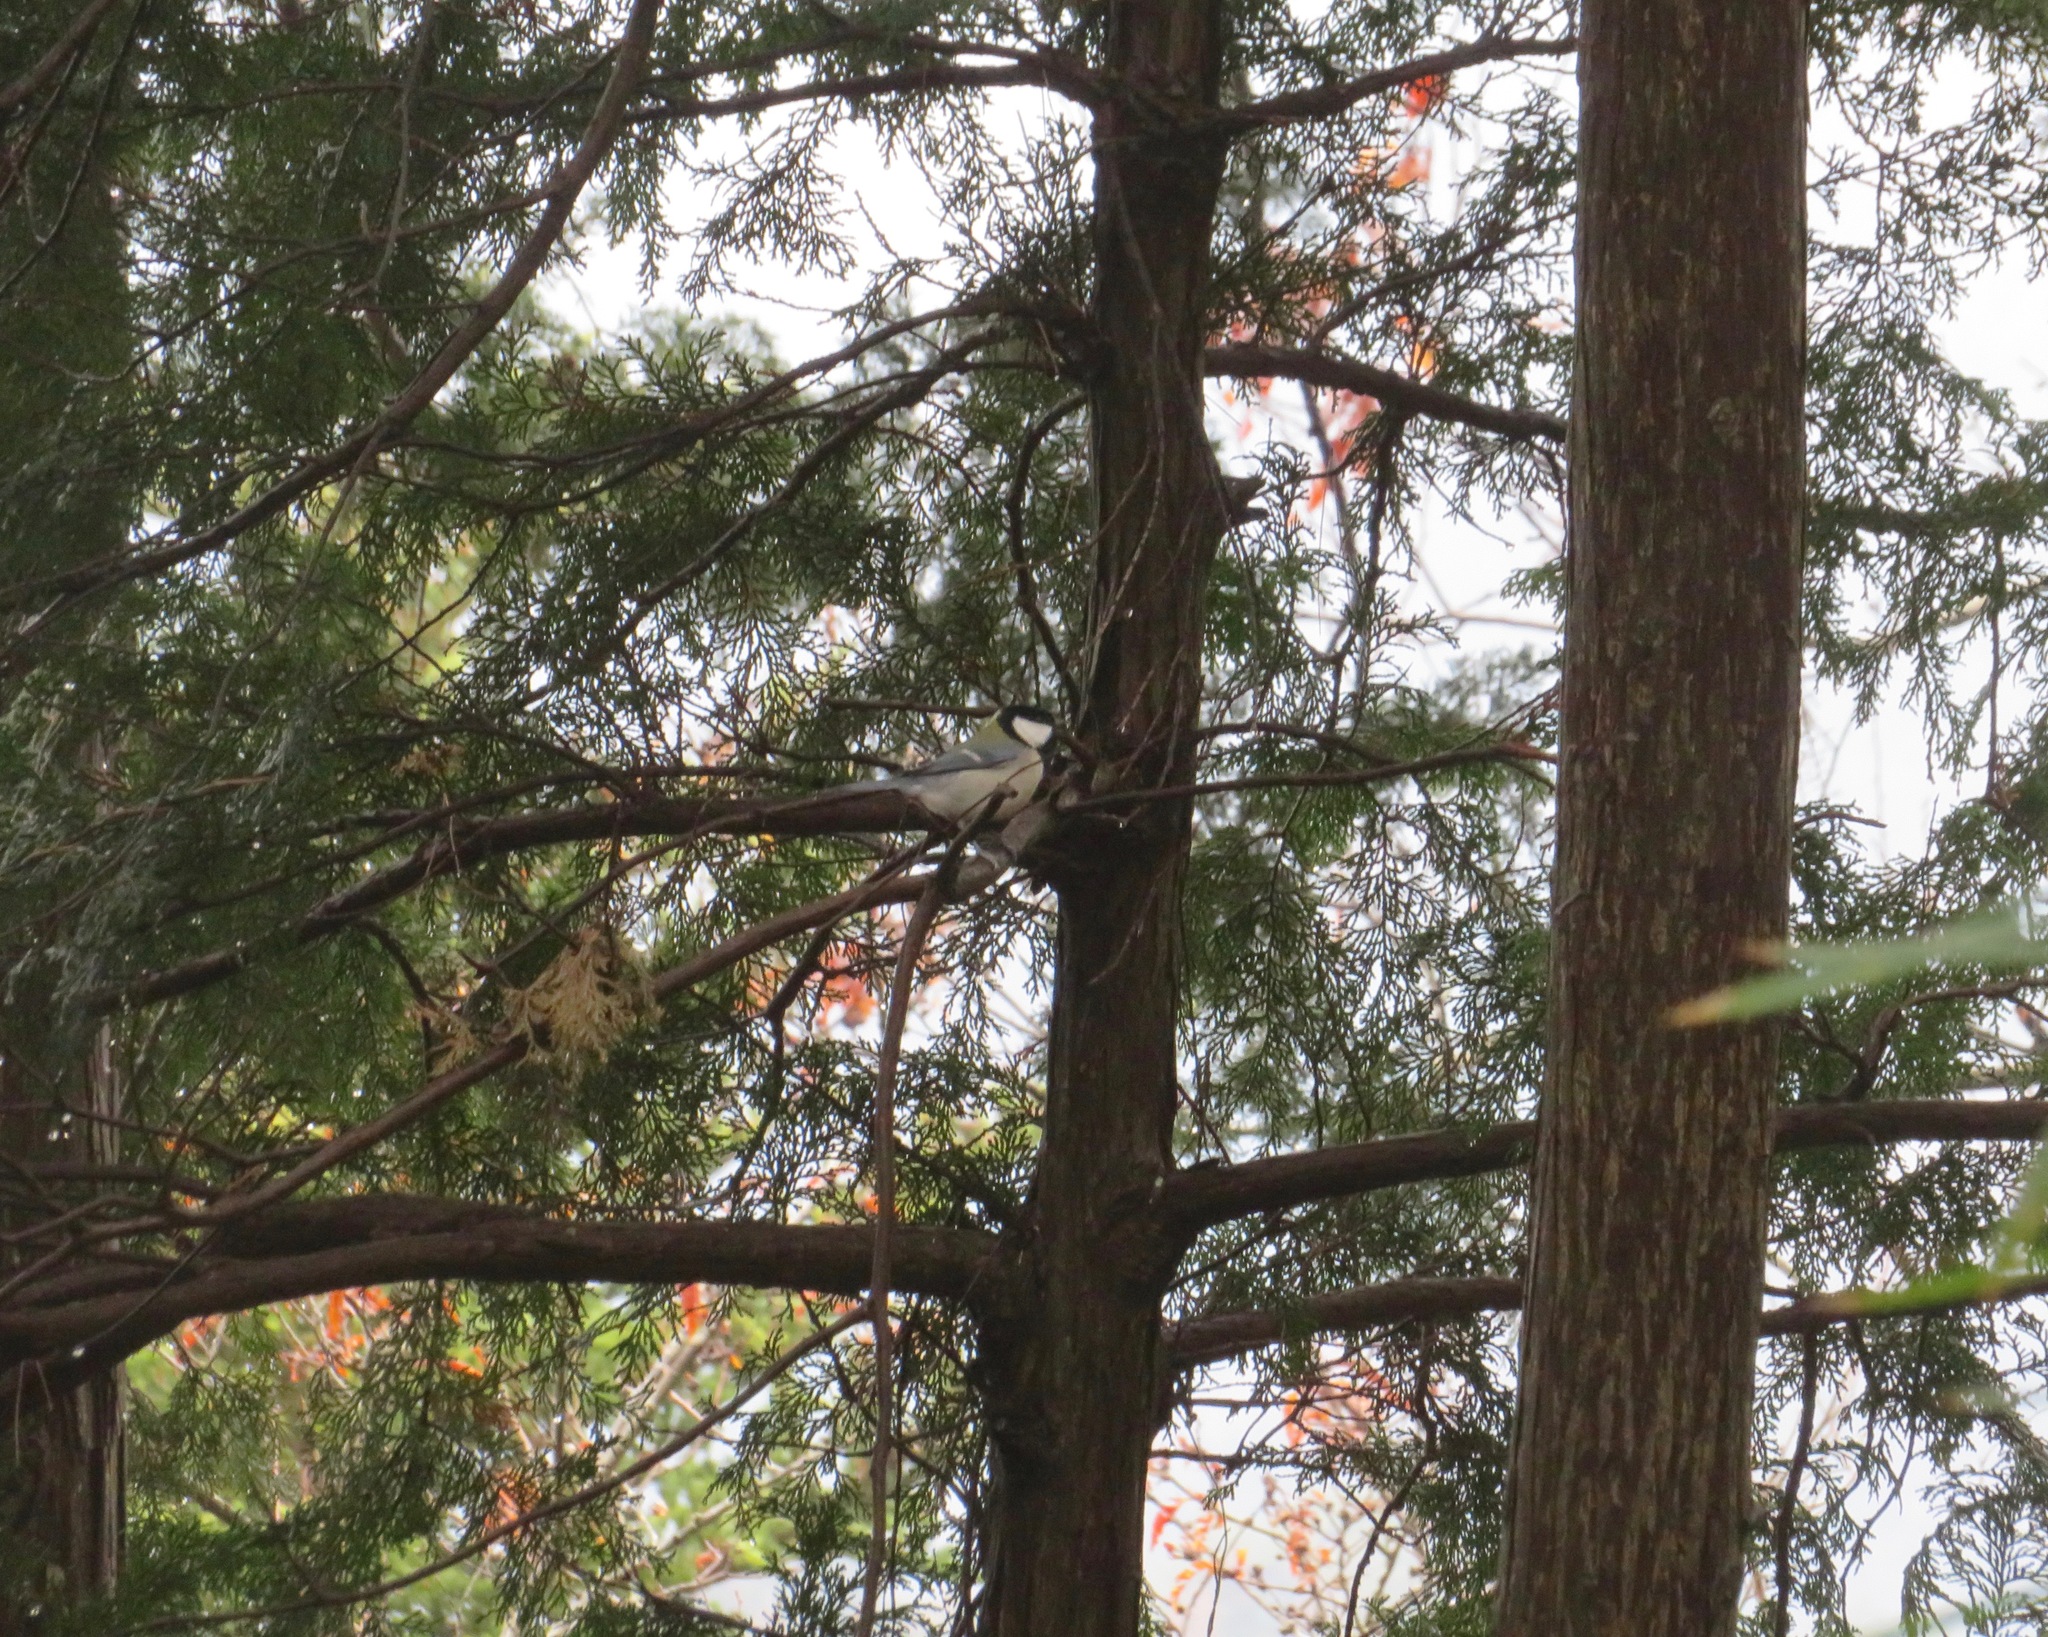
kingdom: Animalia
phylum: Chordata
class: Aves
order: Passeriformes
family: Paridae
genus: Parus
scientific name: Parus minor
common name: Japanese tit
